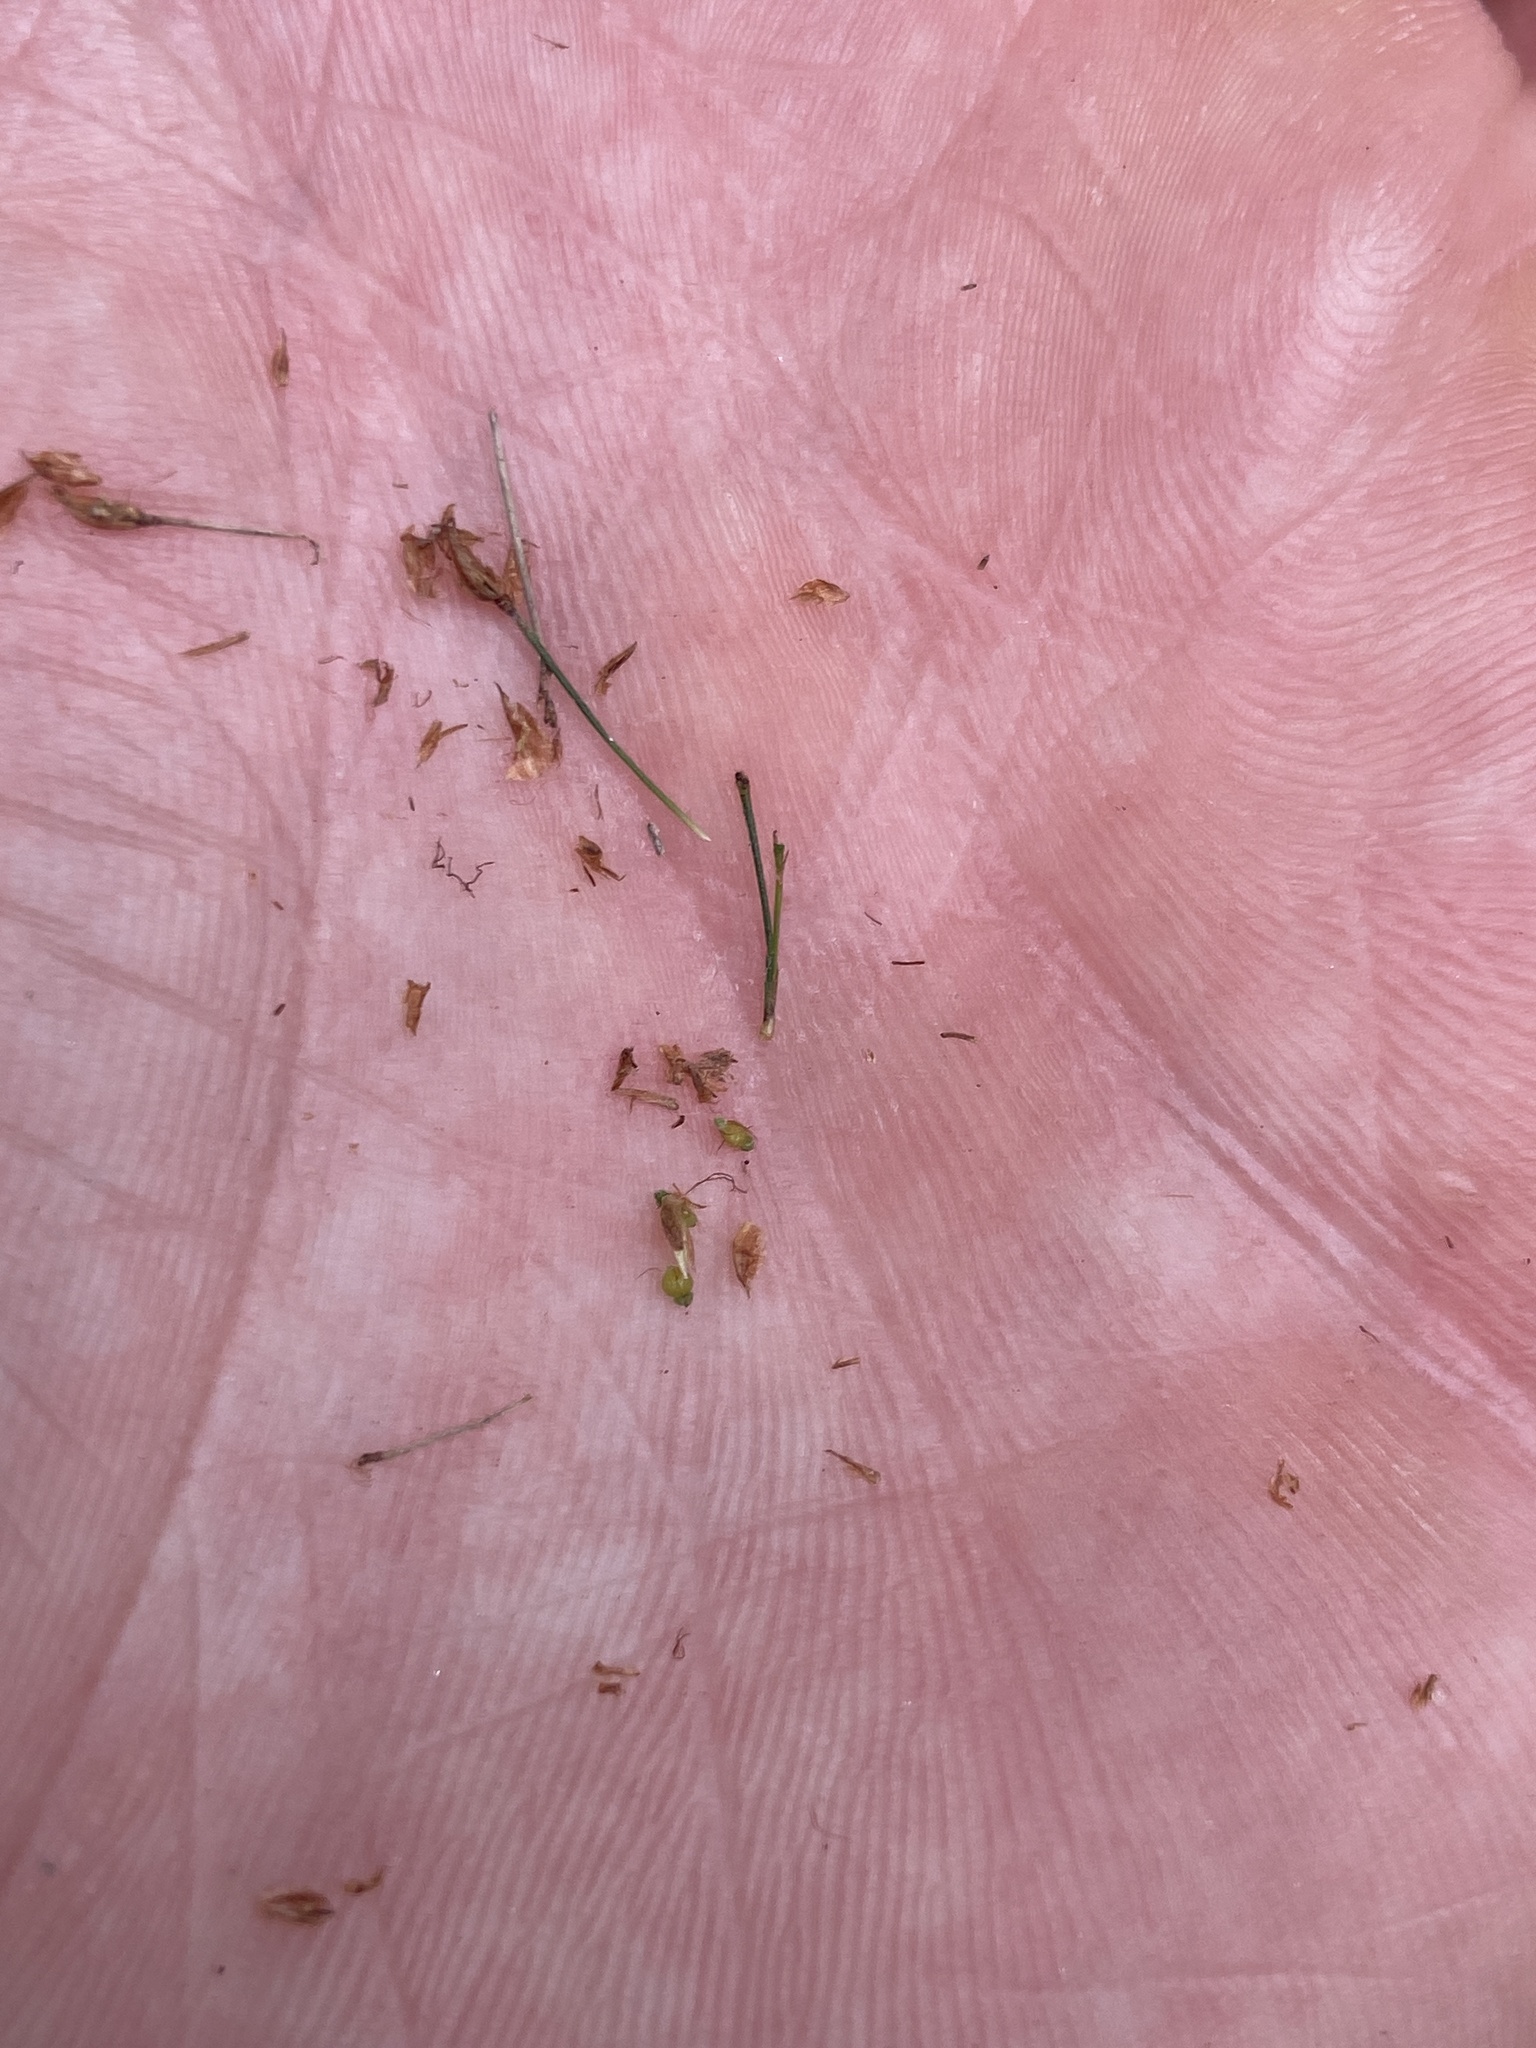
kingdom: Plantae
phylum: Tracheophyta
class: Liliopsida
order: Poales
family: Cyperaceae
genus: Rhynchospora
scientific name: Rhynchospora miliacea
